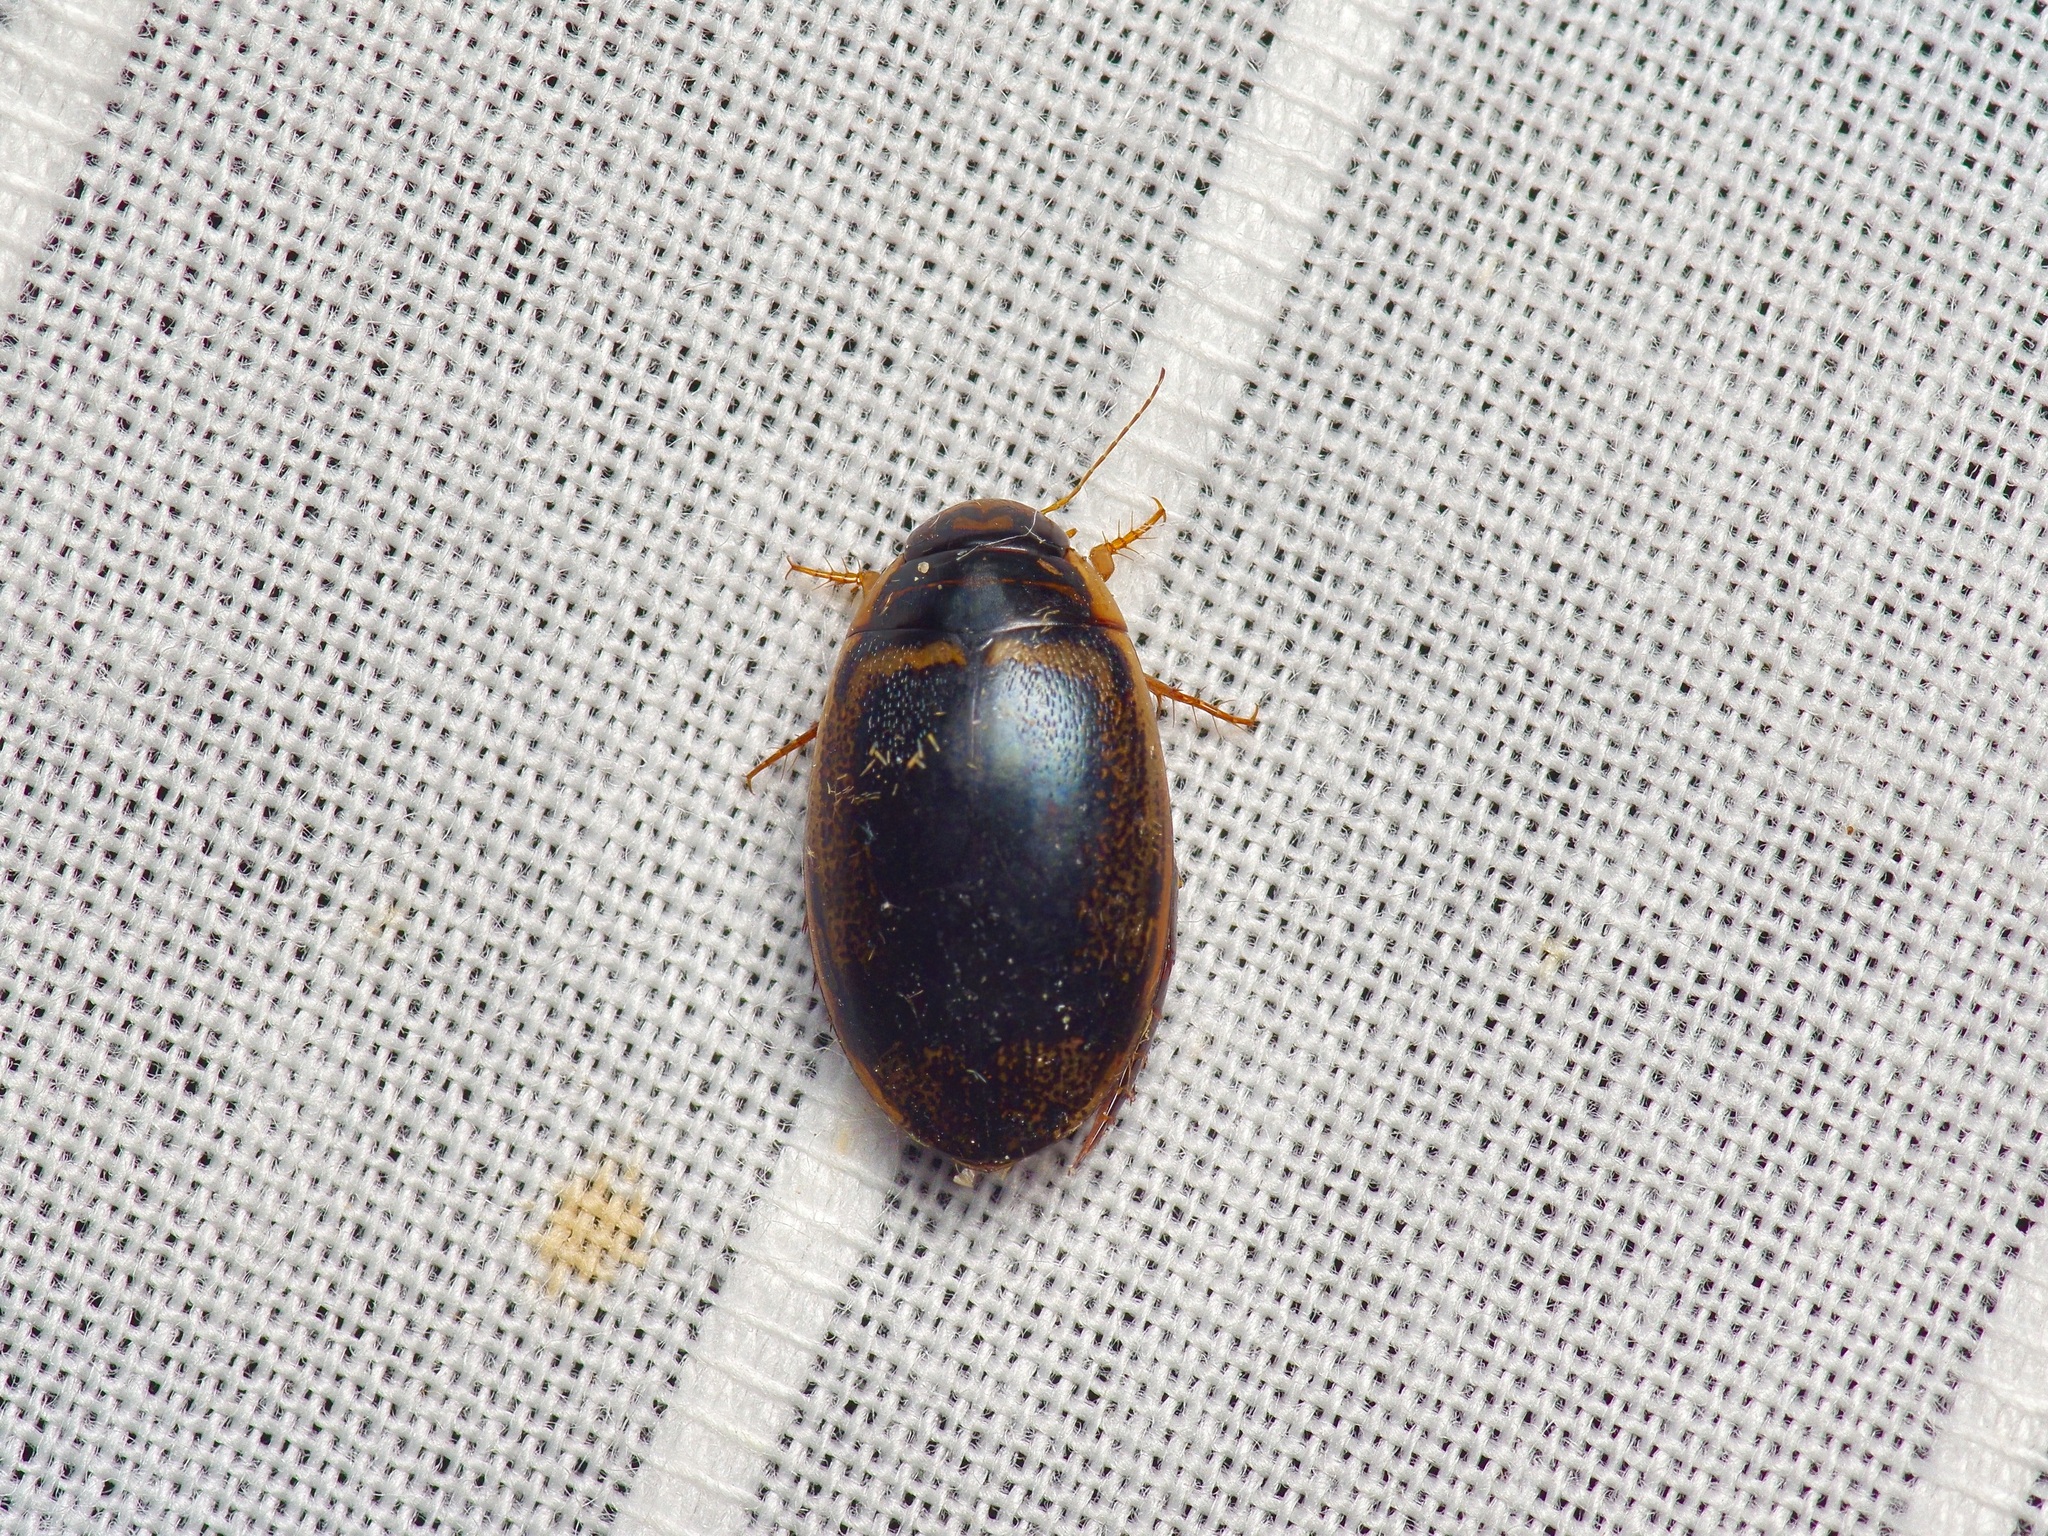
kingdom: Animalia
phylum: Arthropoda
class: Insecta
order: Coleoptera
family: Dytiscidae
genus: Thermonectus
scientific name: Thermonectus basillaris
